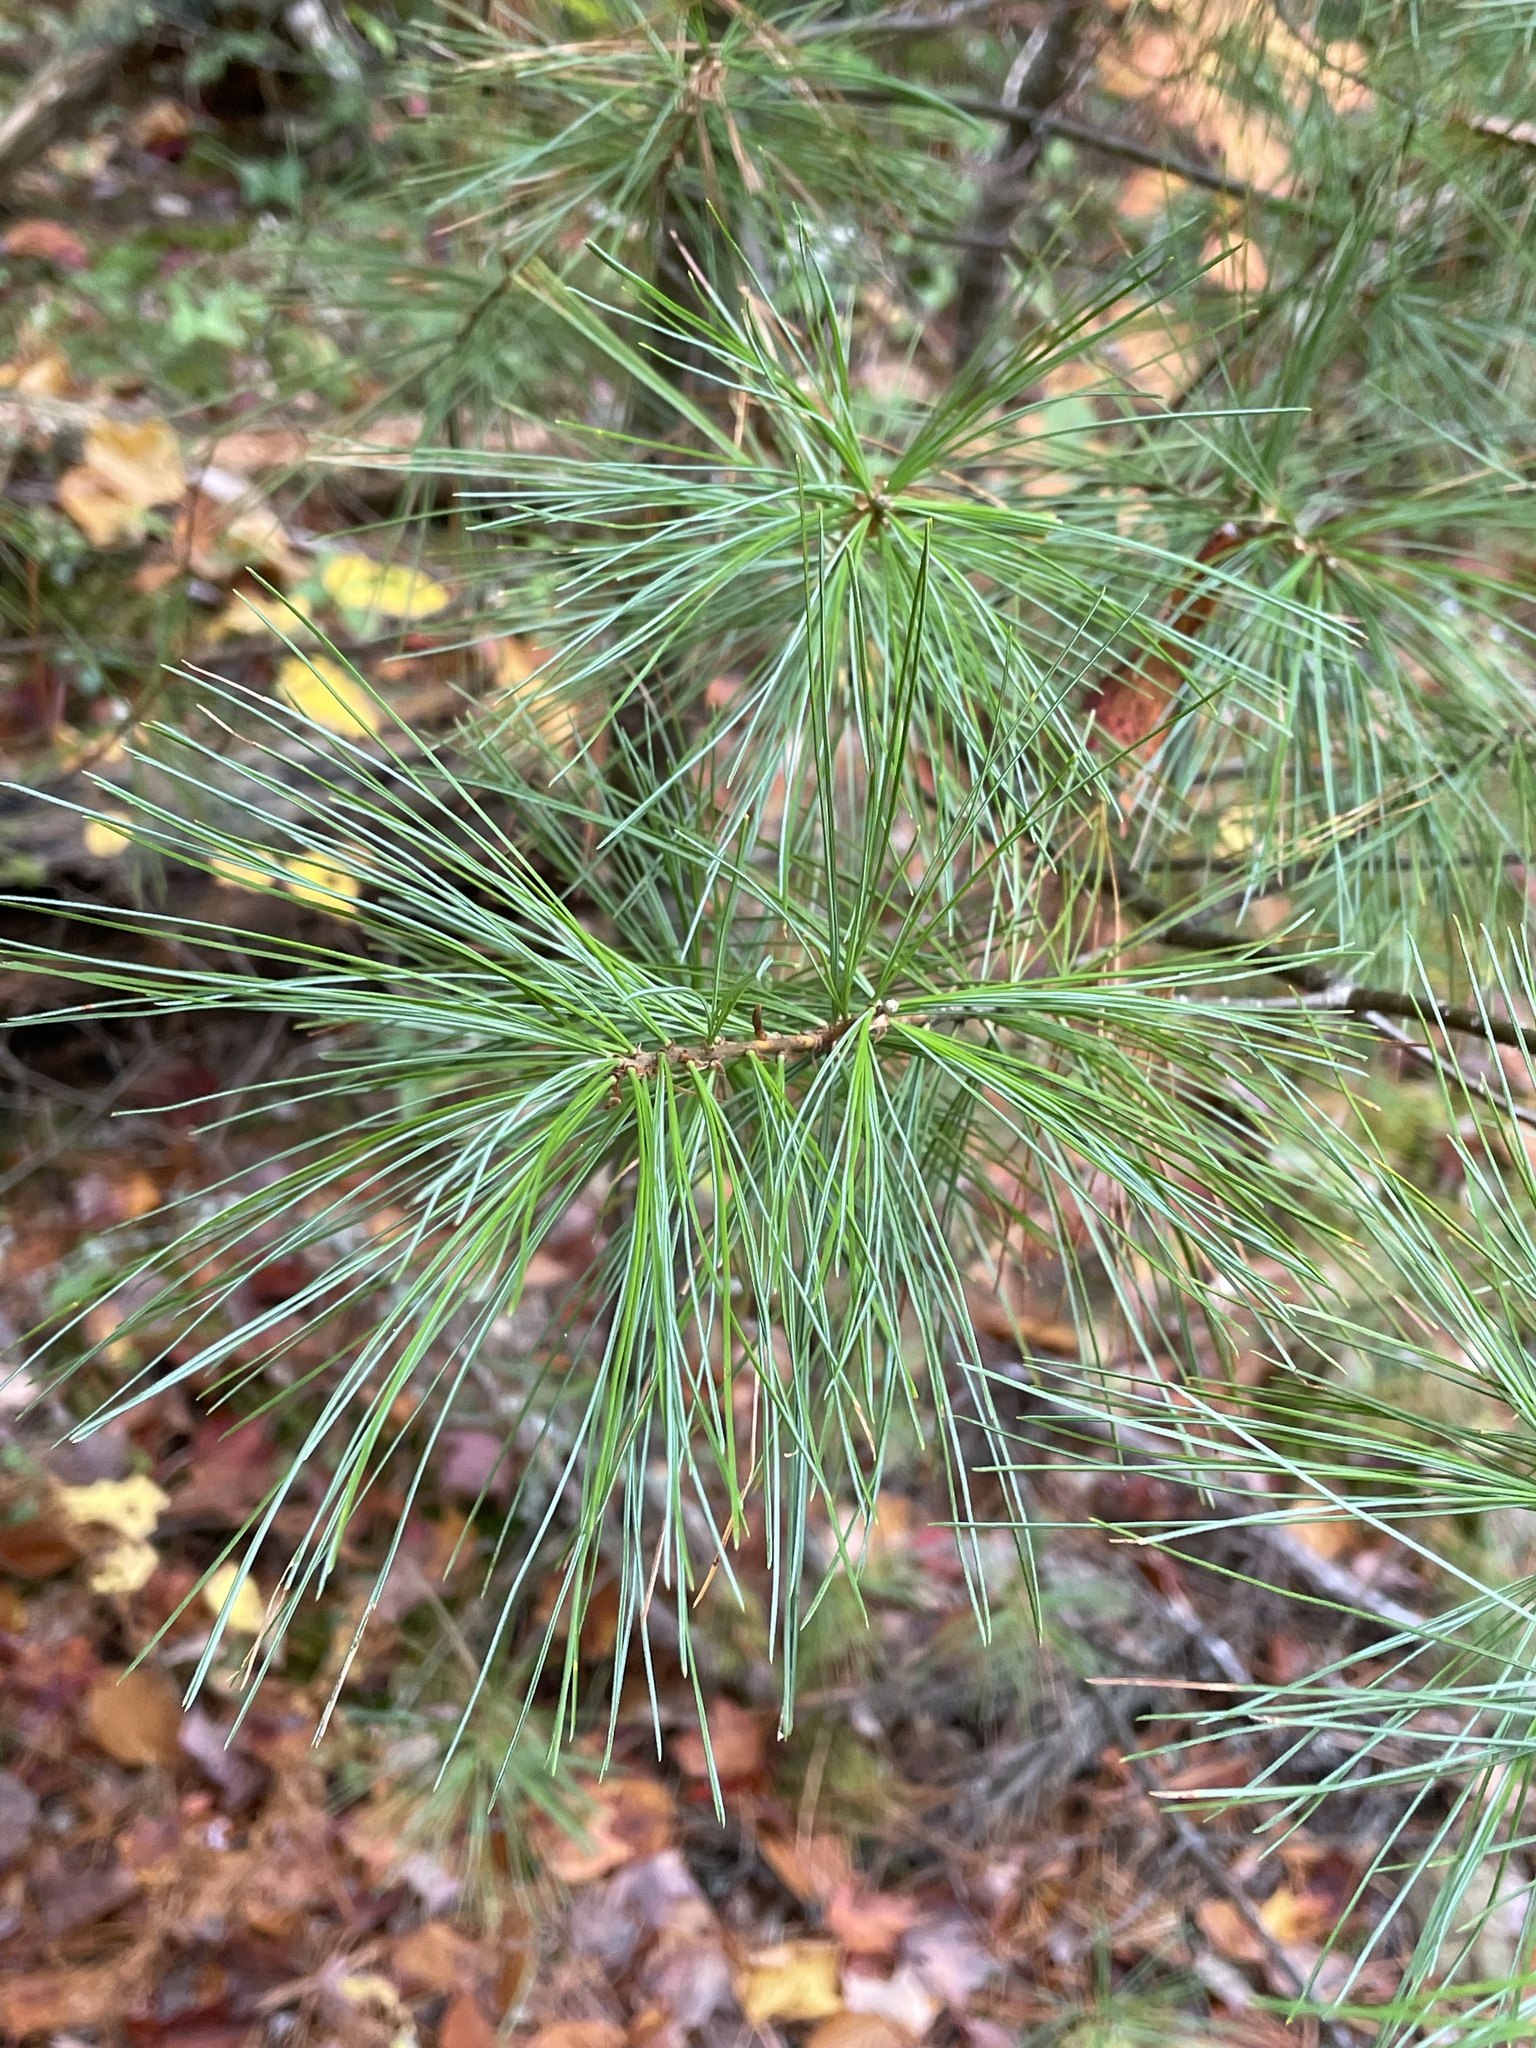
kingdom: Plantae
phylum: Tracheophyta
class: Pinopsida
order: Pinales
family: Pinaceae
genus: Pinus
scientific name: Pinus strobus
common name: Weymouth pine
